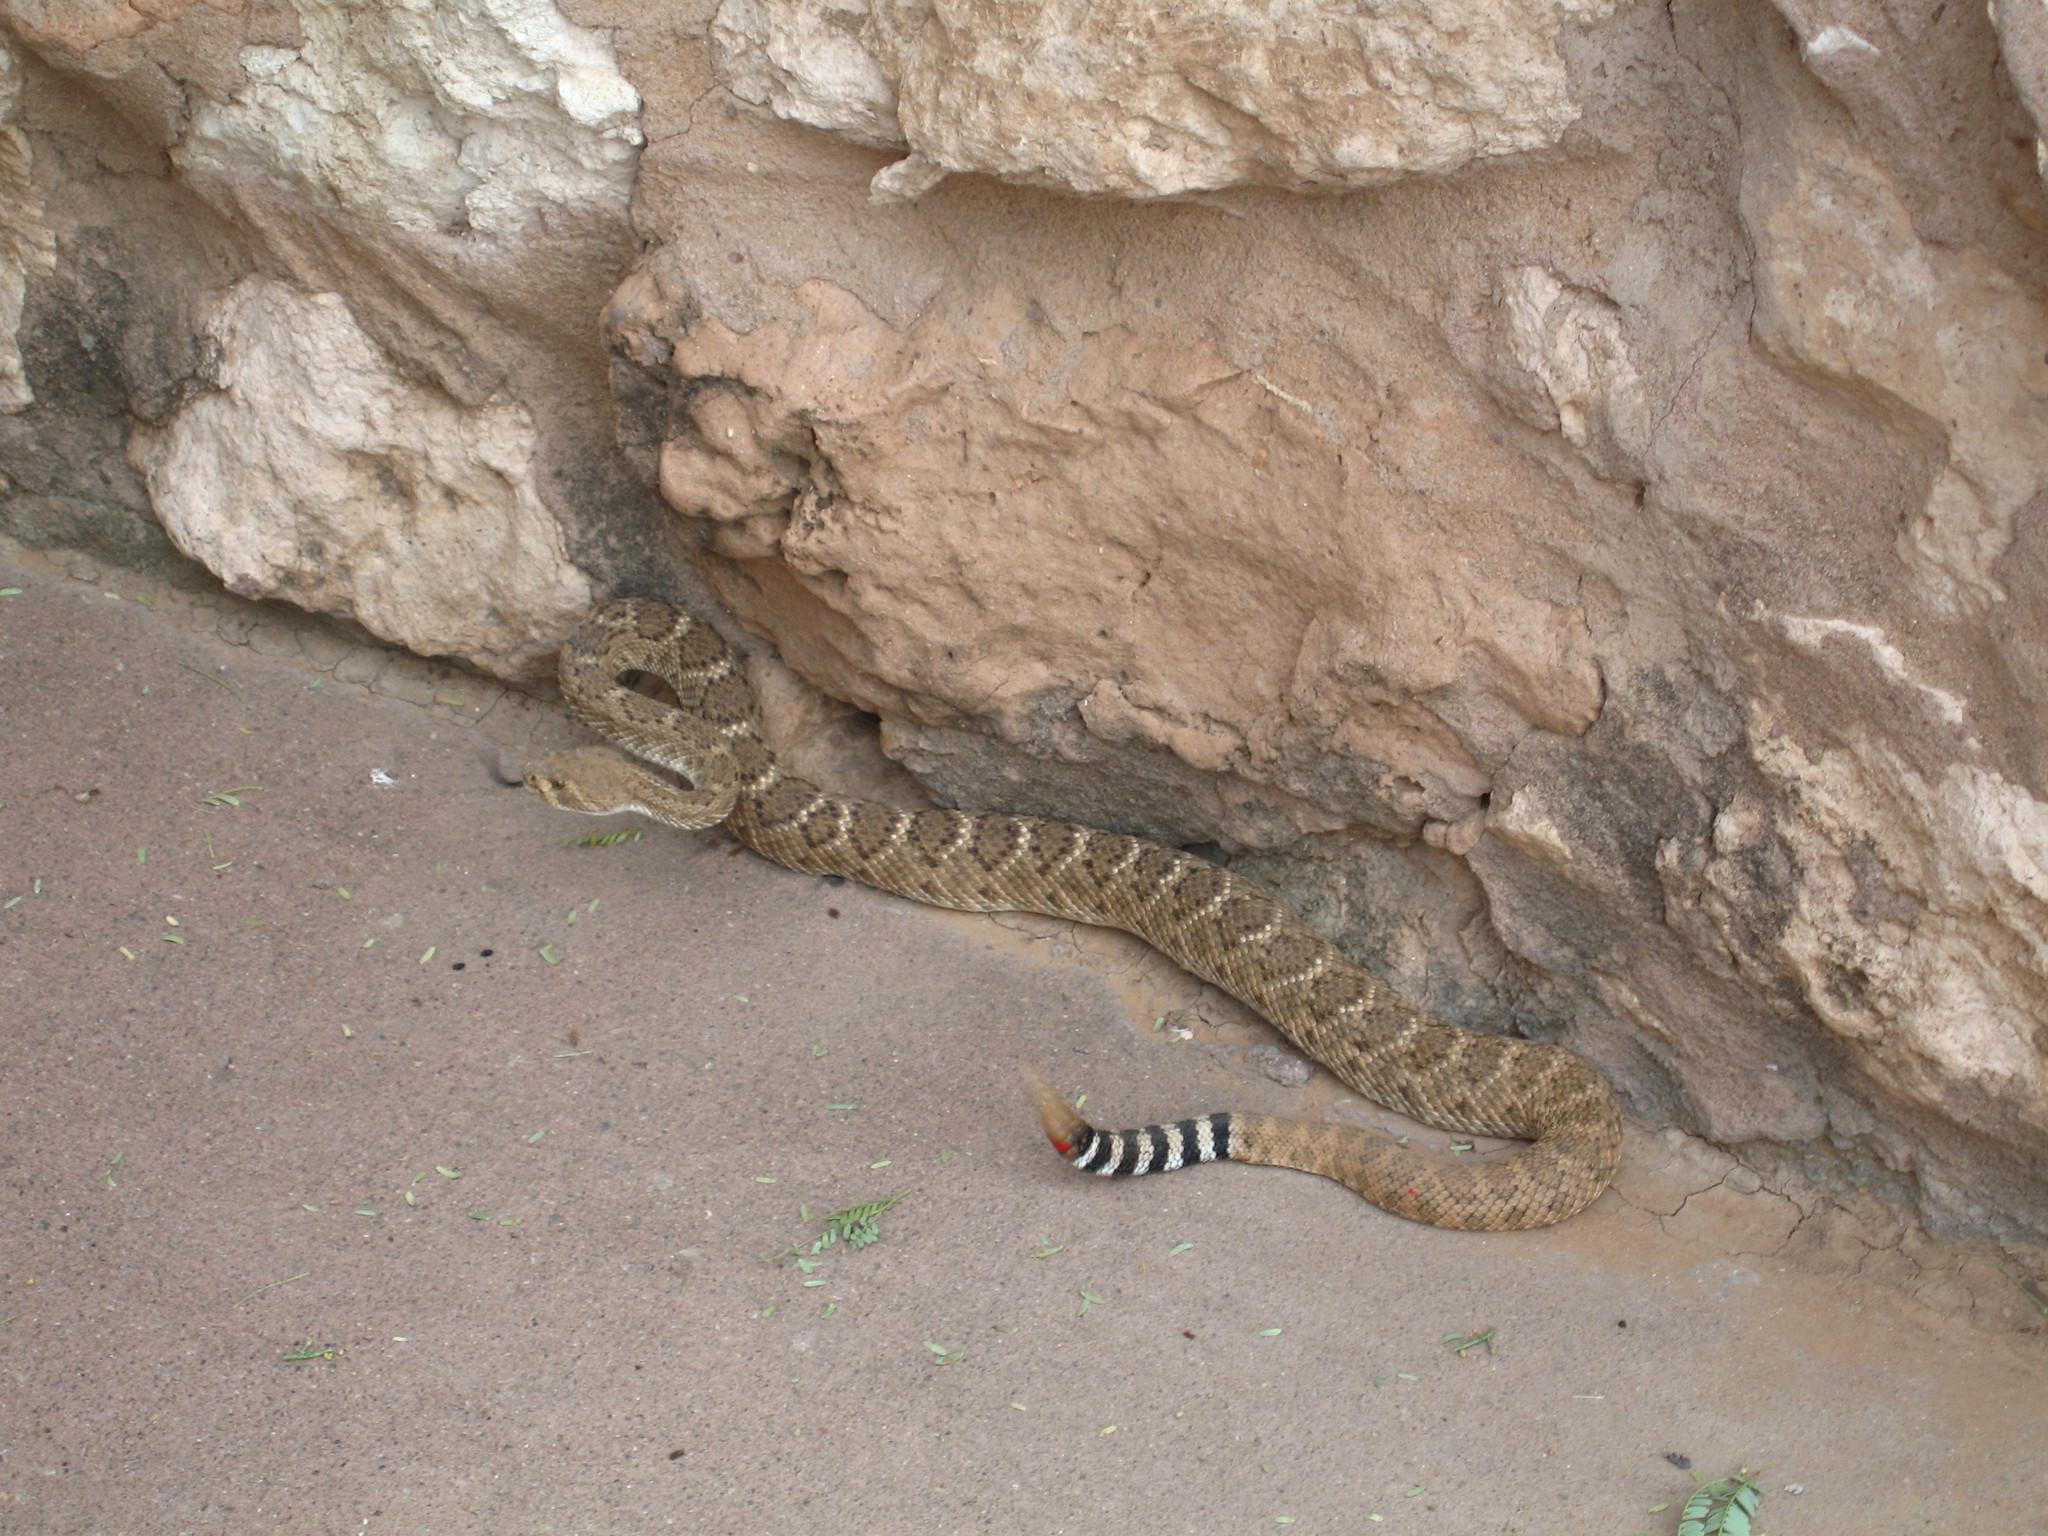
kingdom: Animalia
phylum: Chordata
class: Squamata
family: Viperidae
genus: Crotalus
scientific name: Crotalus atrox
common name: Western diamond-backed rattlesnake
